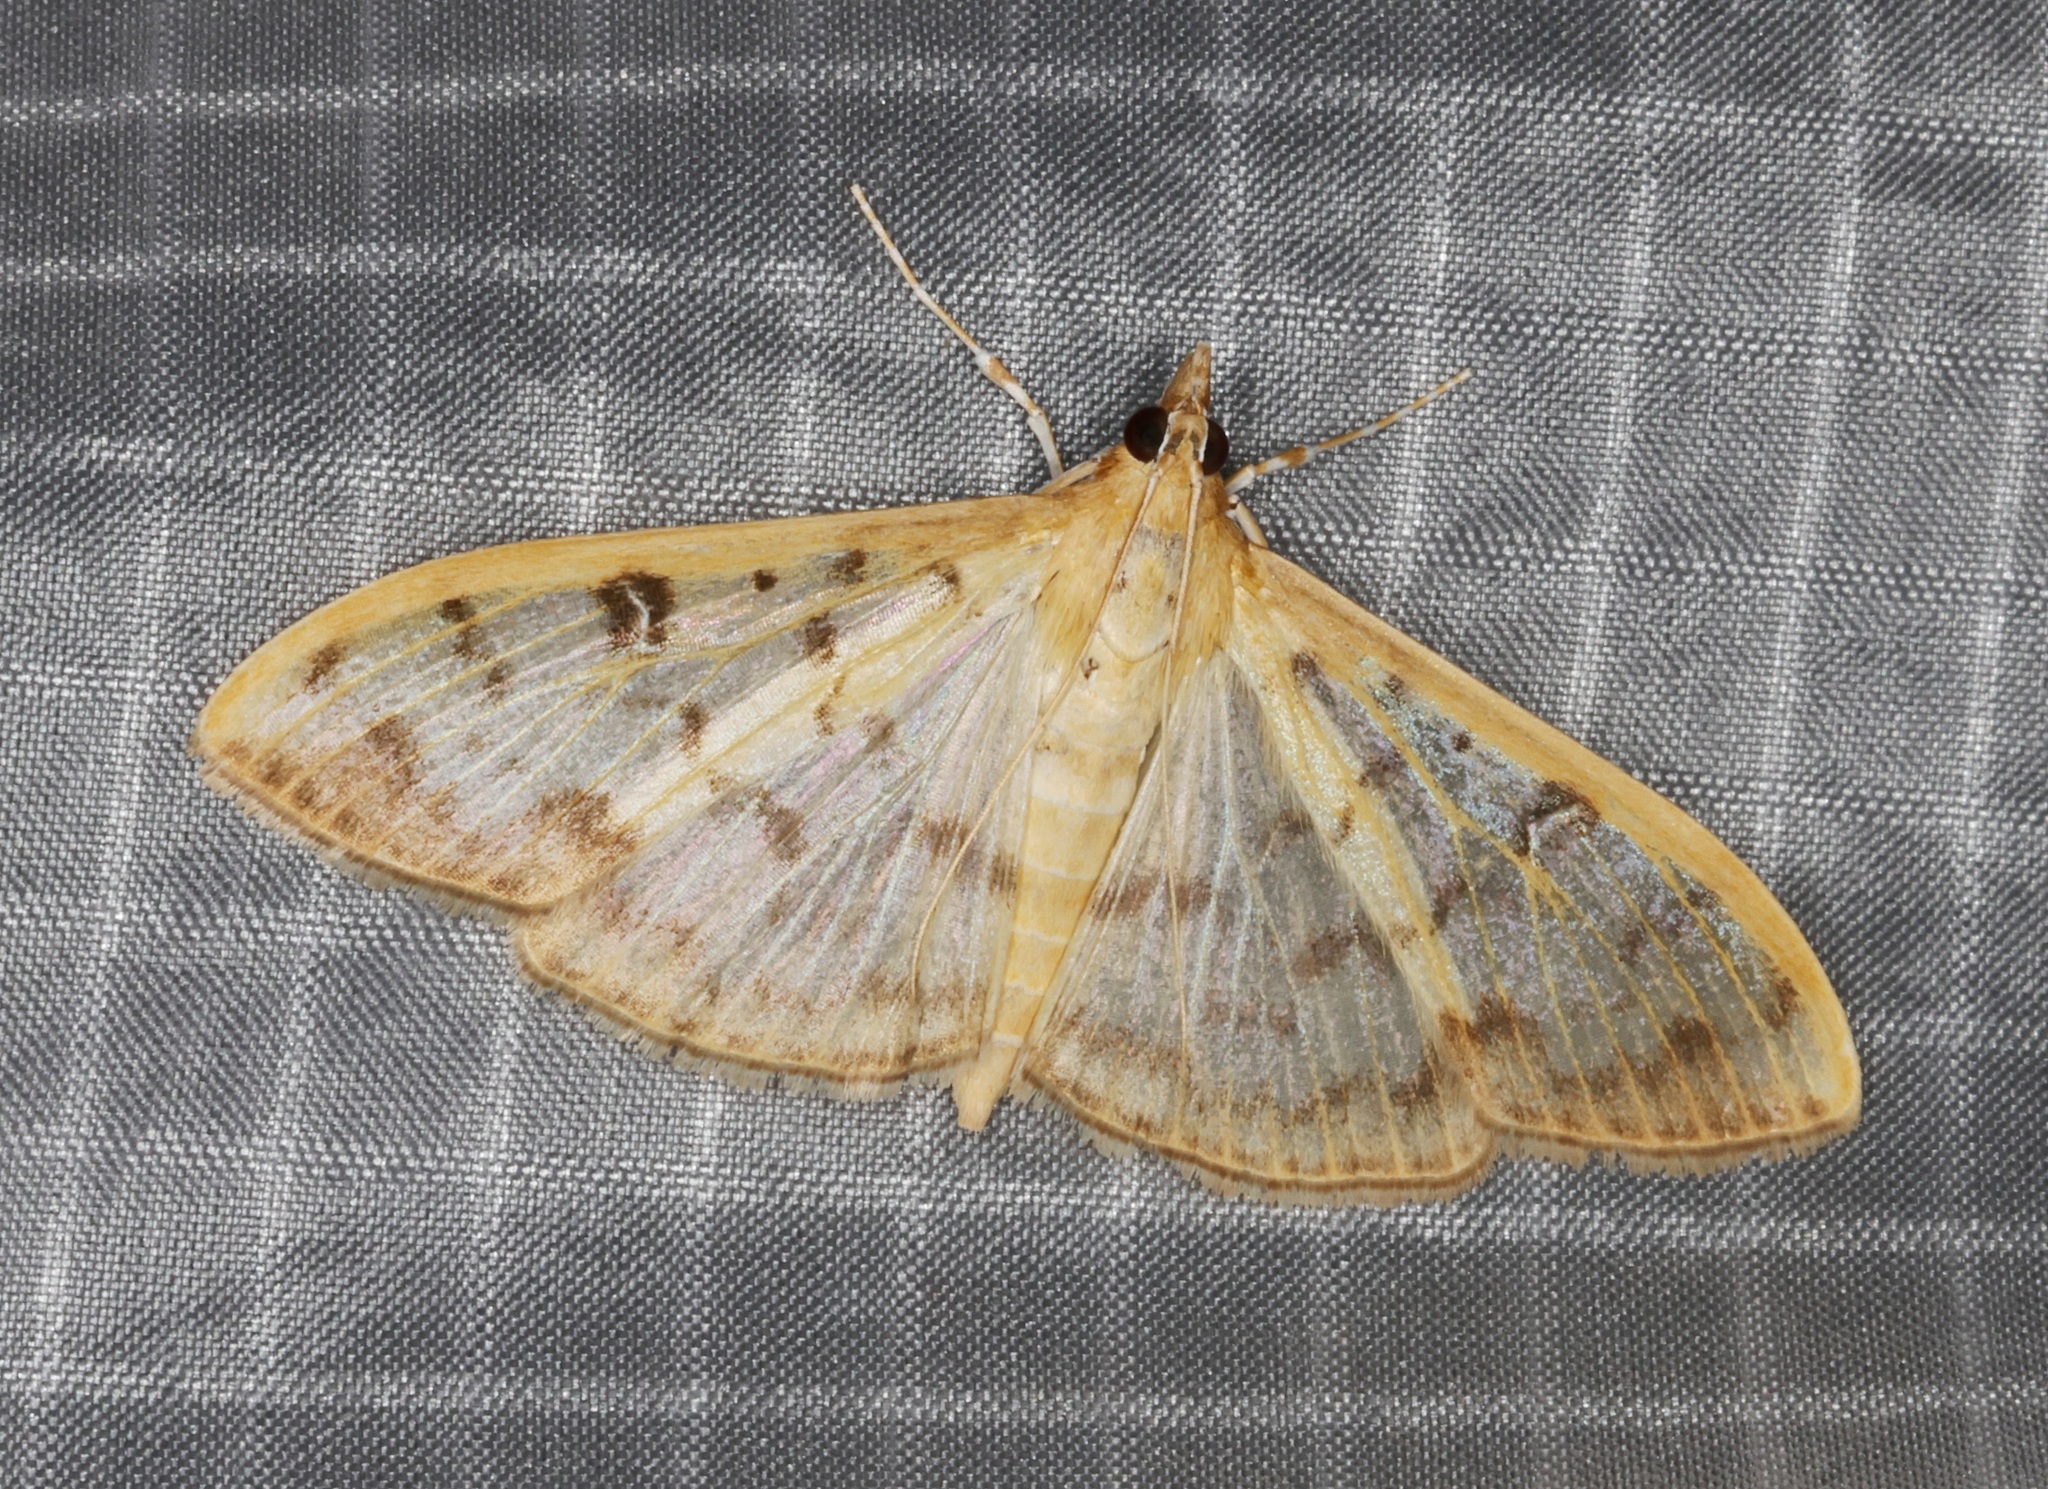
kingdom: Animalia
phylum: Arthropoda
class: Insecta
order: Lepidoptera
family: Crambidae
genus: Botyodes
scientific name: Botyodes diniasalis
